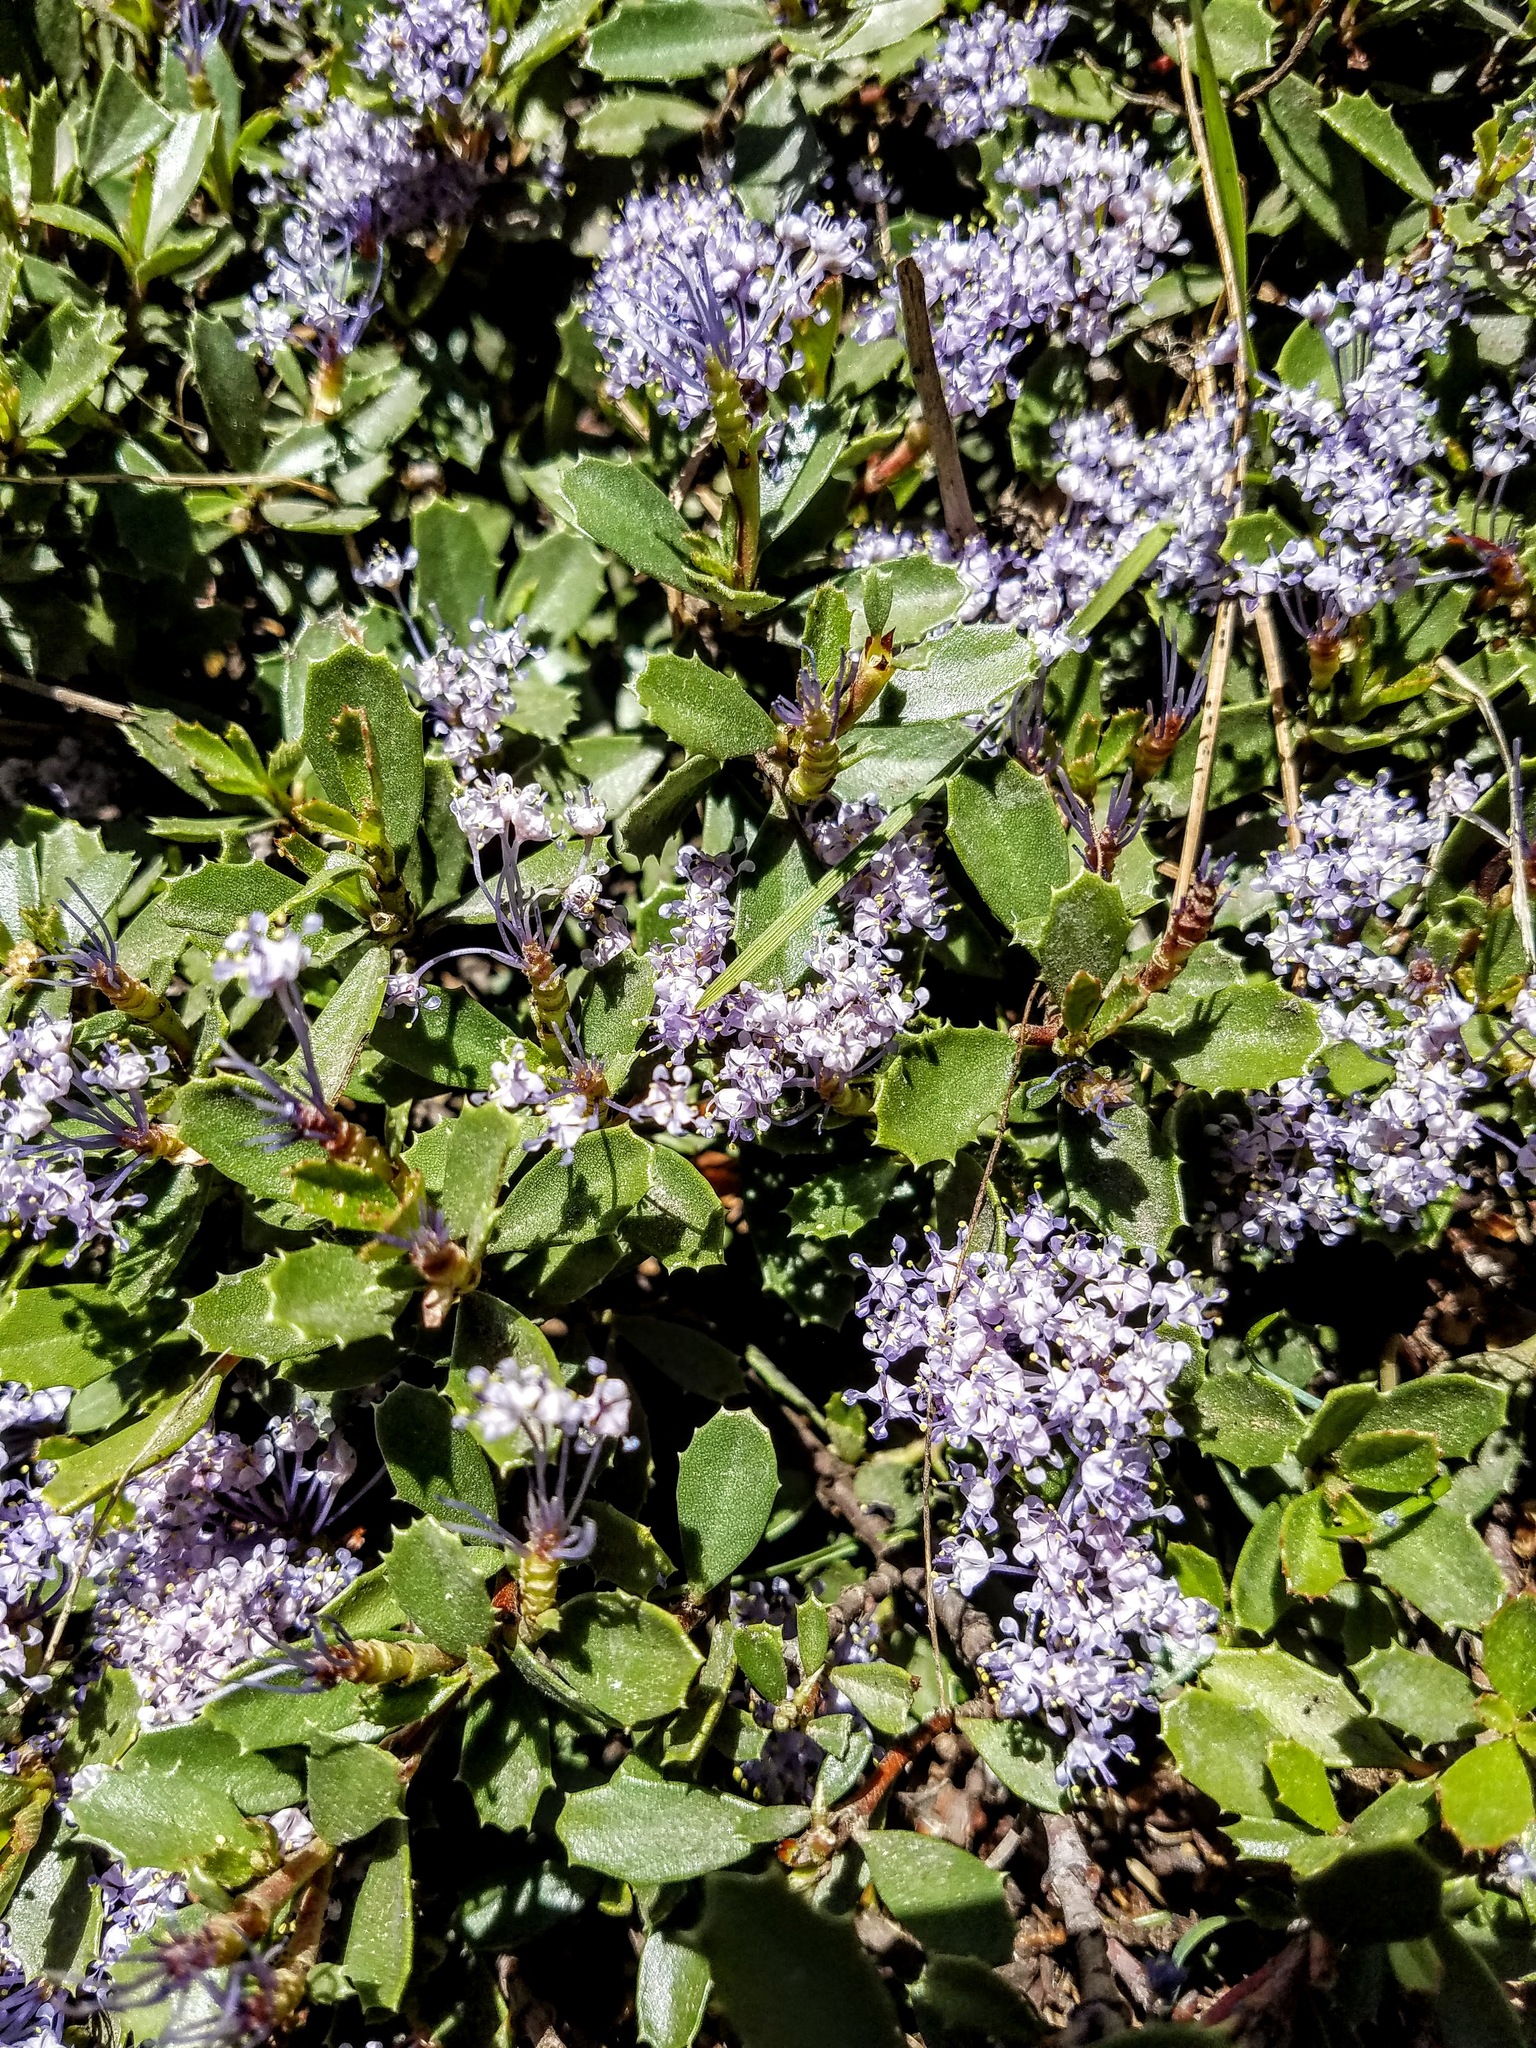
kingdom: Plantae
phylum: Tracheophyta
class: Magnoliopsida
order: Rosales
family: Rhamnaceae
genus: Ceanothus
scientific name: Ceanothus prostratus
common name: Mahala-mat
